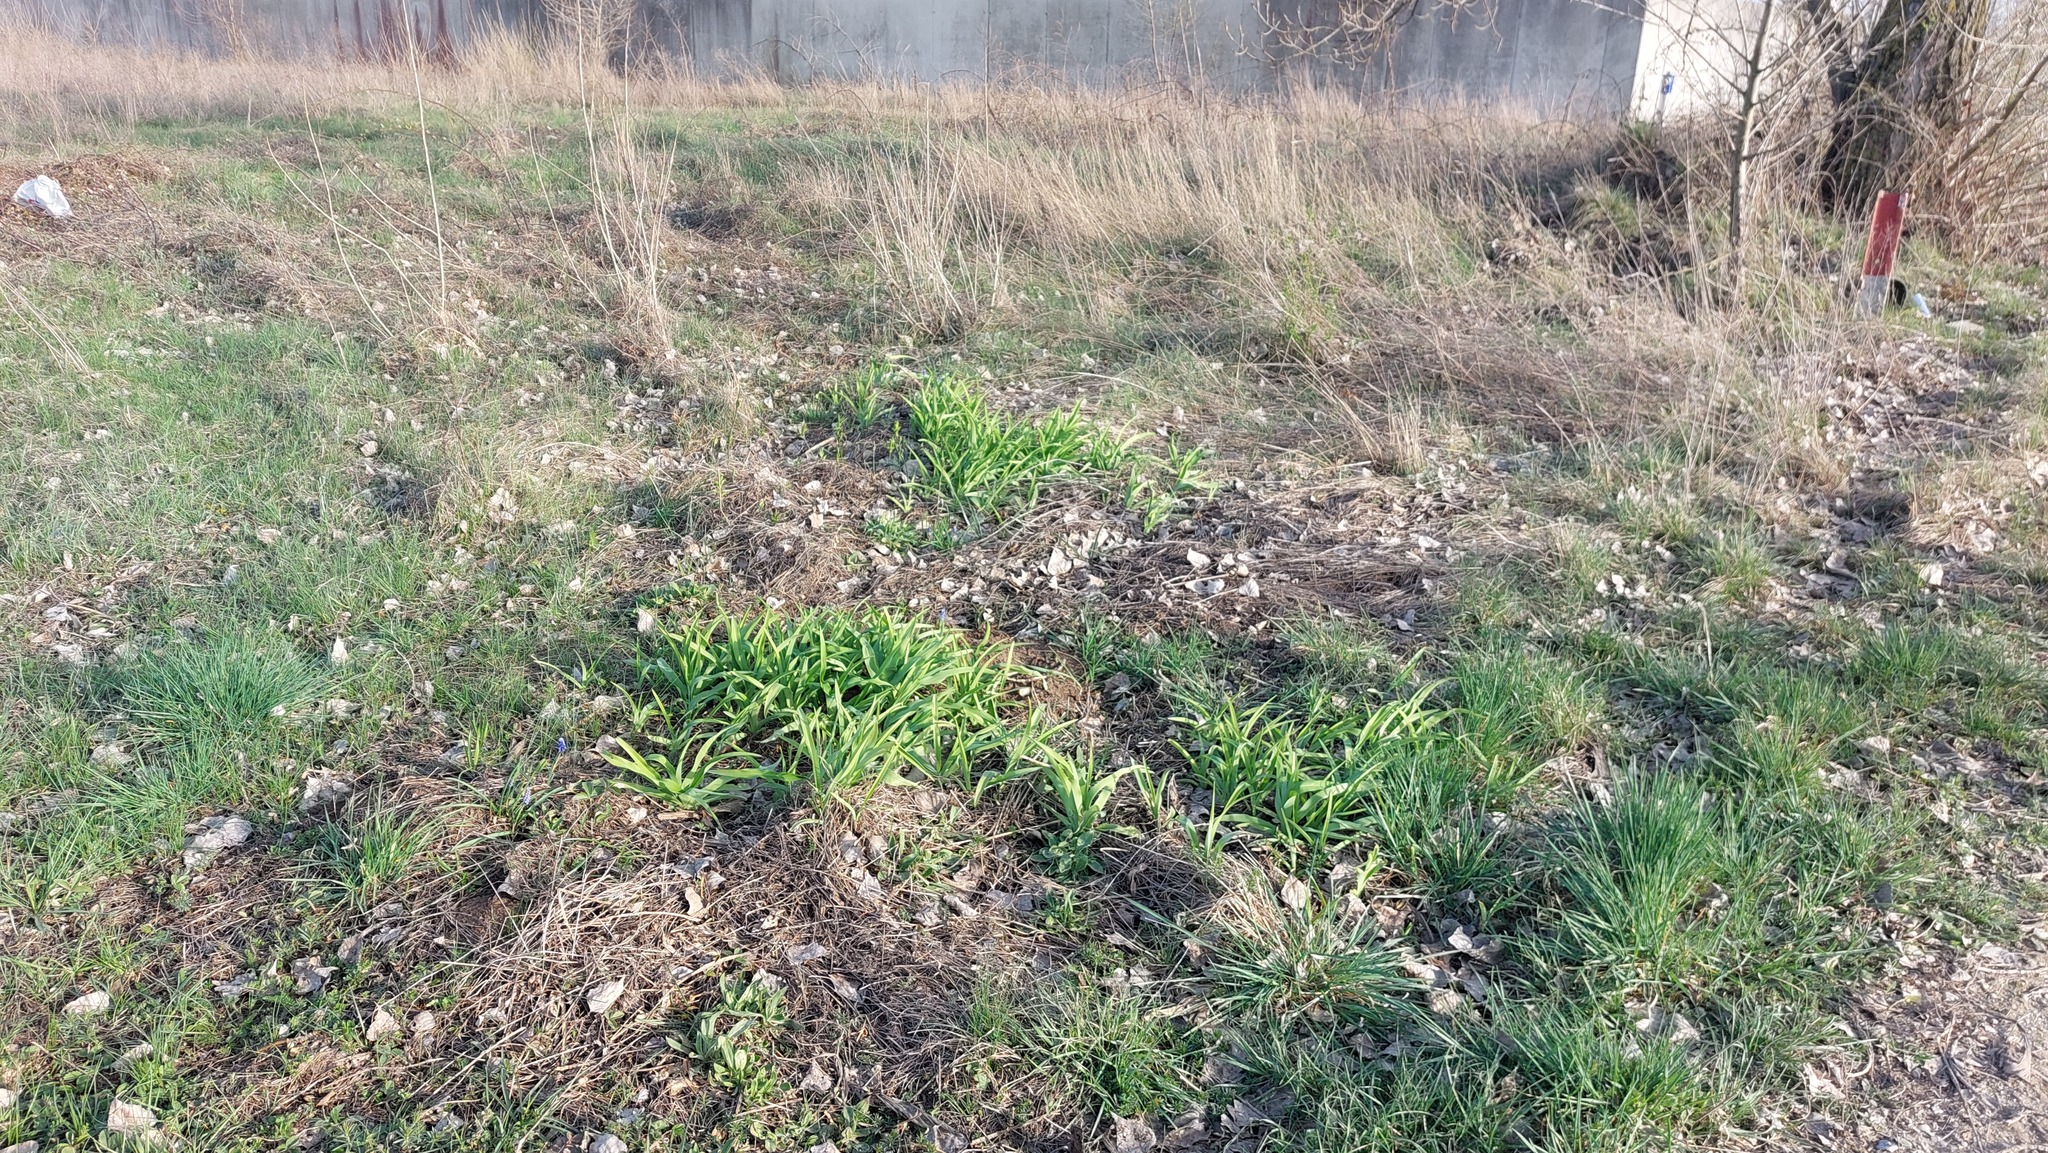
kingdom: Plantae
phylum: Tracheophyta
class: Liliopsida
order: Asparagales
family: Asphodelaceae
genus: Hemerocallis
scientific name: Hemerocallis fulva
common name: Orange day-lily
